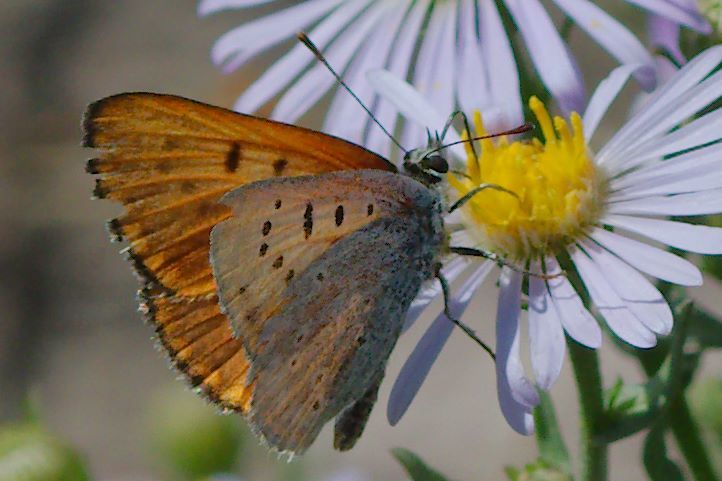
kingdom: Animalia
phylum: Arthropoda
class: Insecta
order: Lepidoptera
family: Lycaenidae
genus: Tharsalea
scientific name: Tharsalea rubidus
